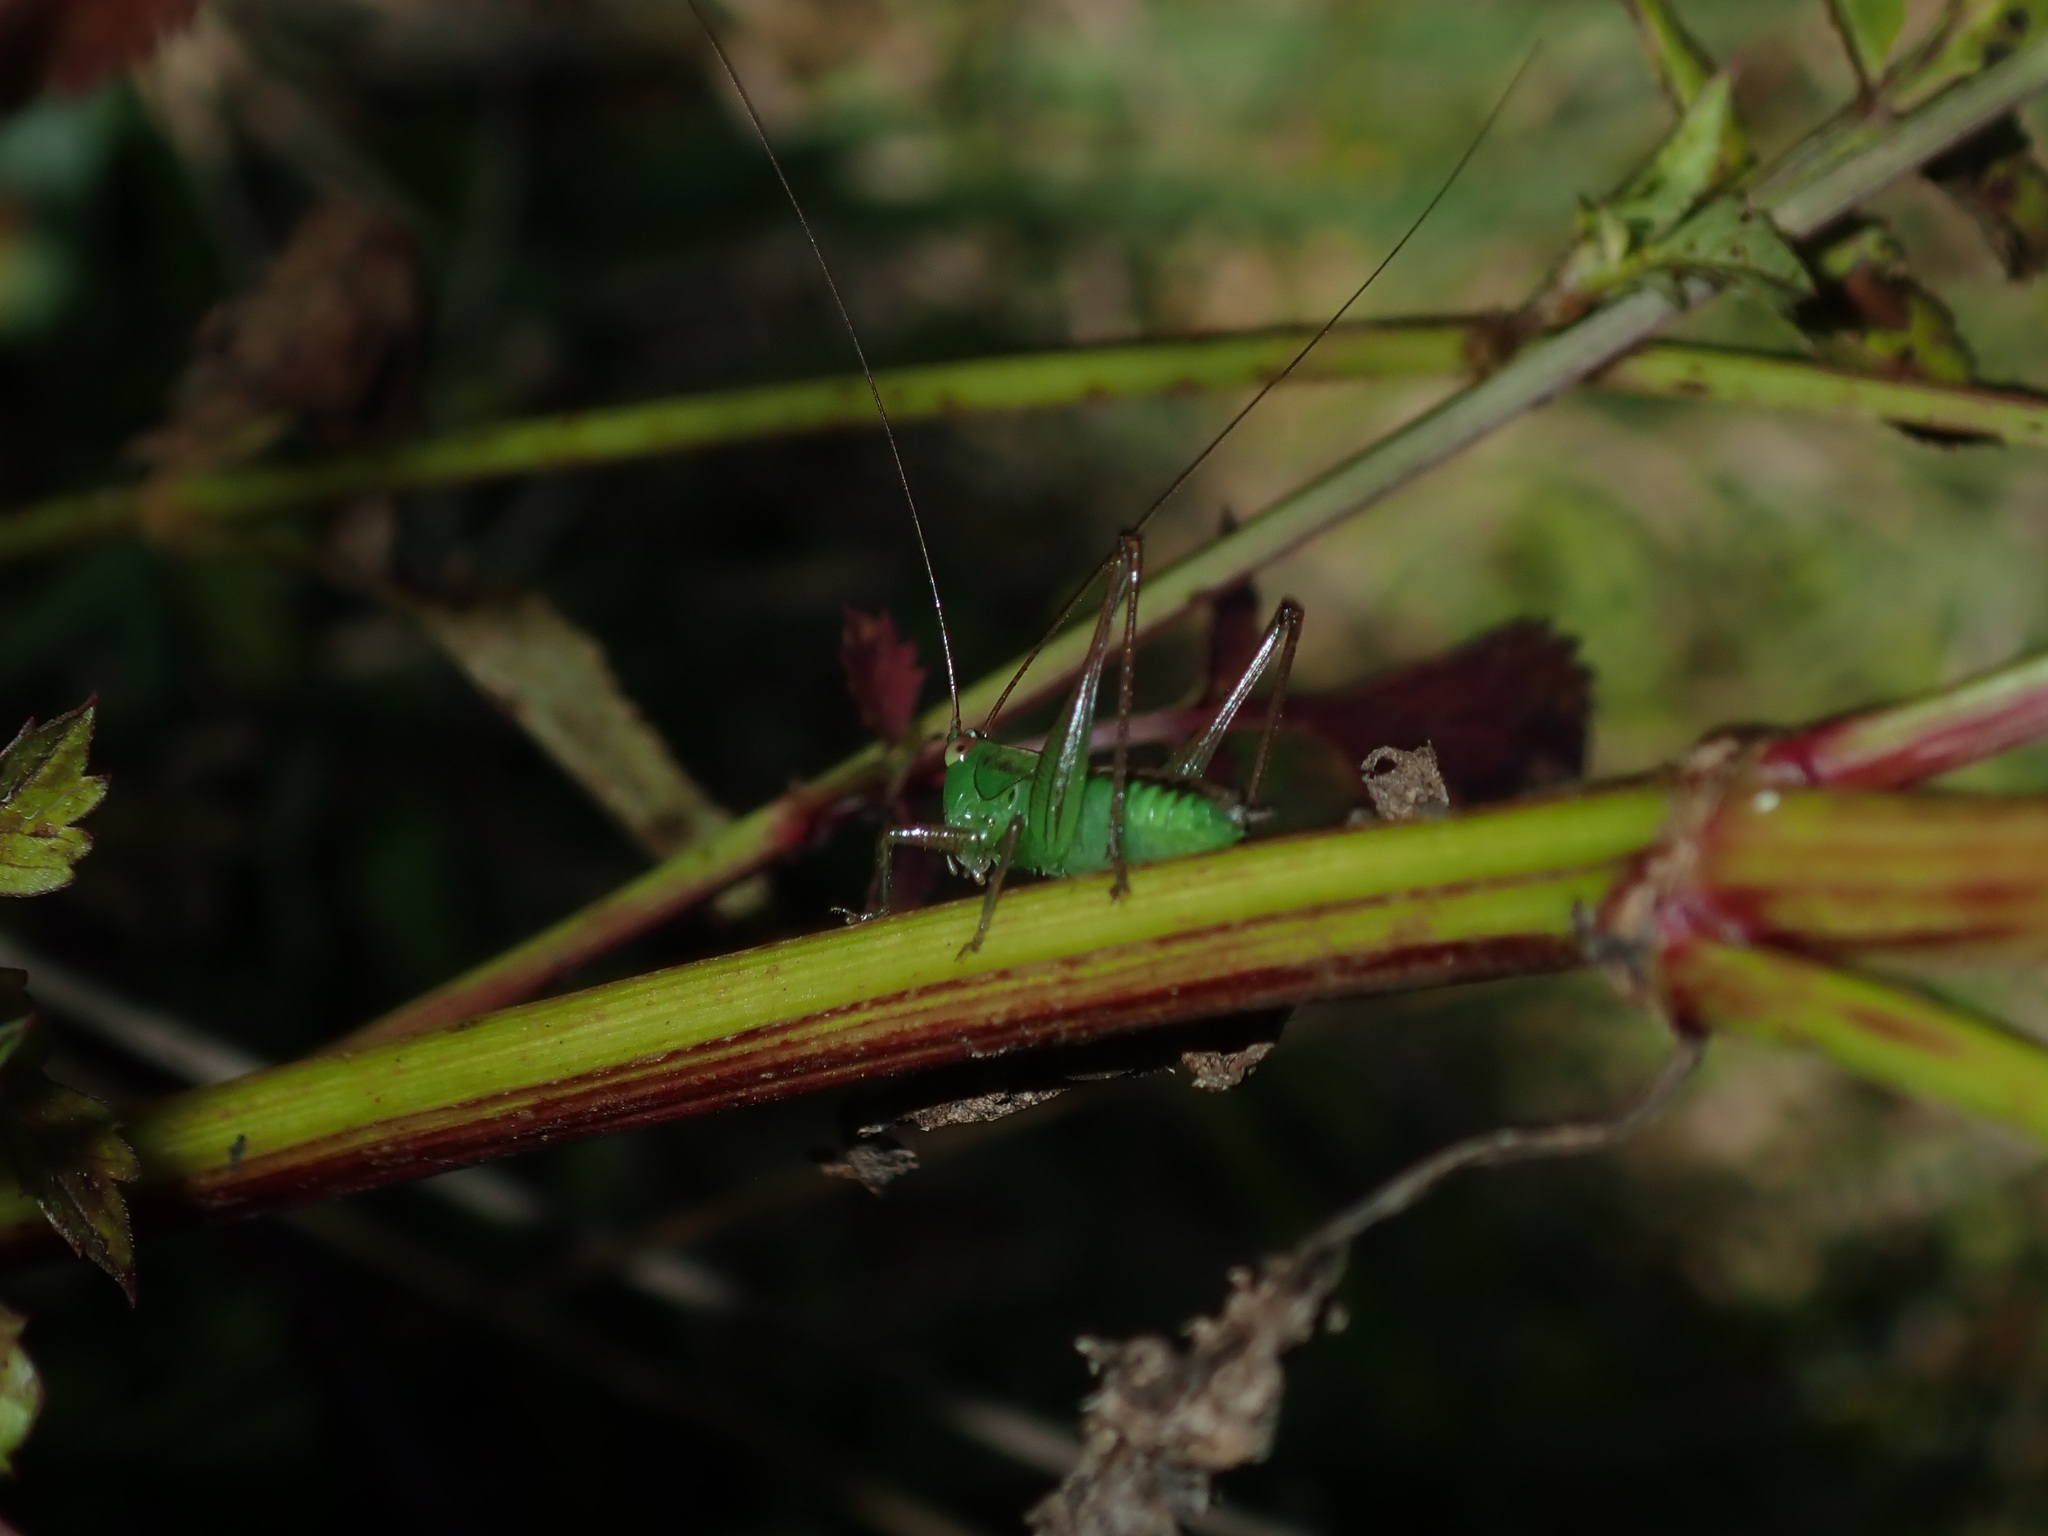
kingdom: Animalia
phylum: Arthropoda
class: Insecta
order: Orthoptera
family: Tettigoniidae
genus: Conocephalus
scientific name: Conocephalus semivittatus
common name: Blackish meadow katydid
